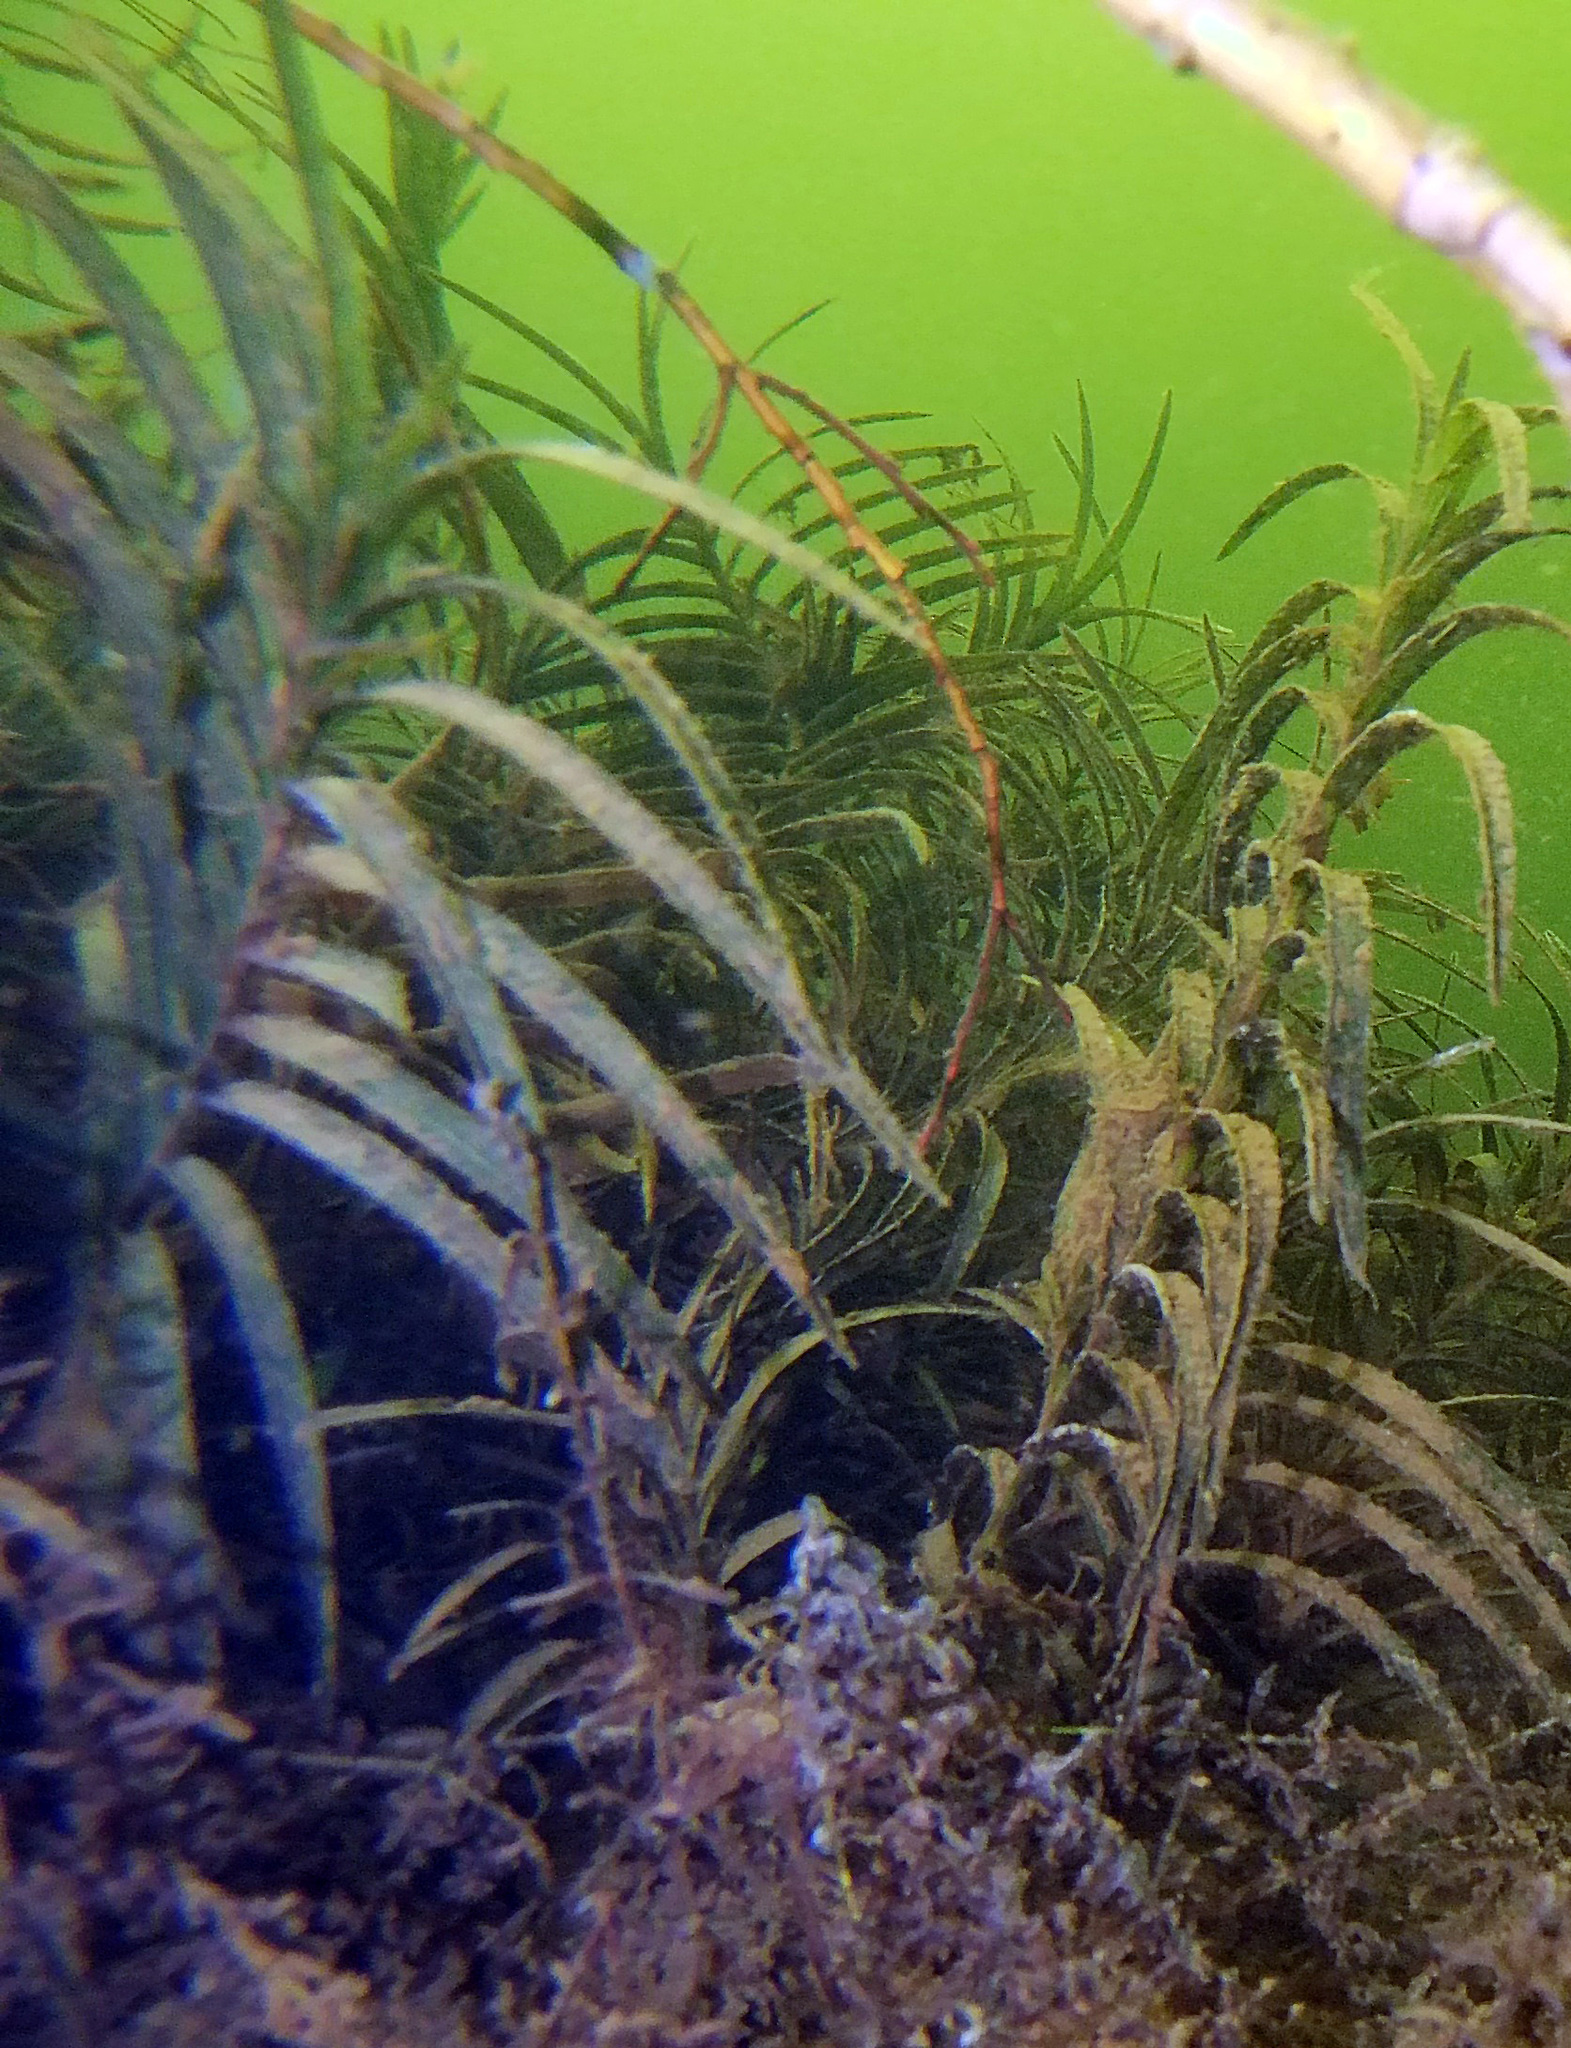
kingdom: Plantae
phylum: Tracheophyta
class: Liliopsida
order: Alismatales
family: Potamogetonaceae
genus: Potamogeton
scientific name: Potamogeton robbinsii
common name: Fern pondweed
